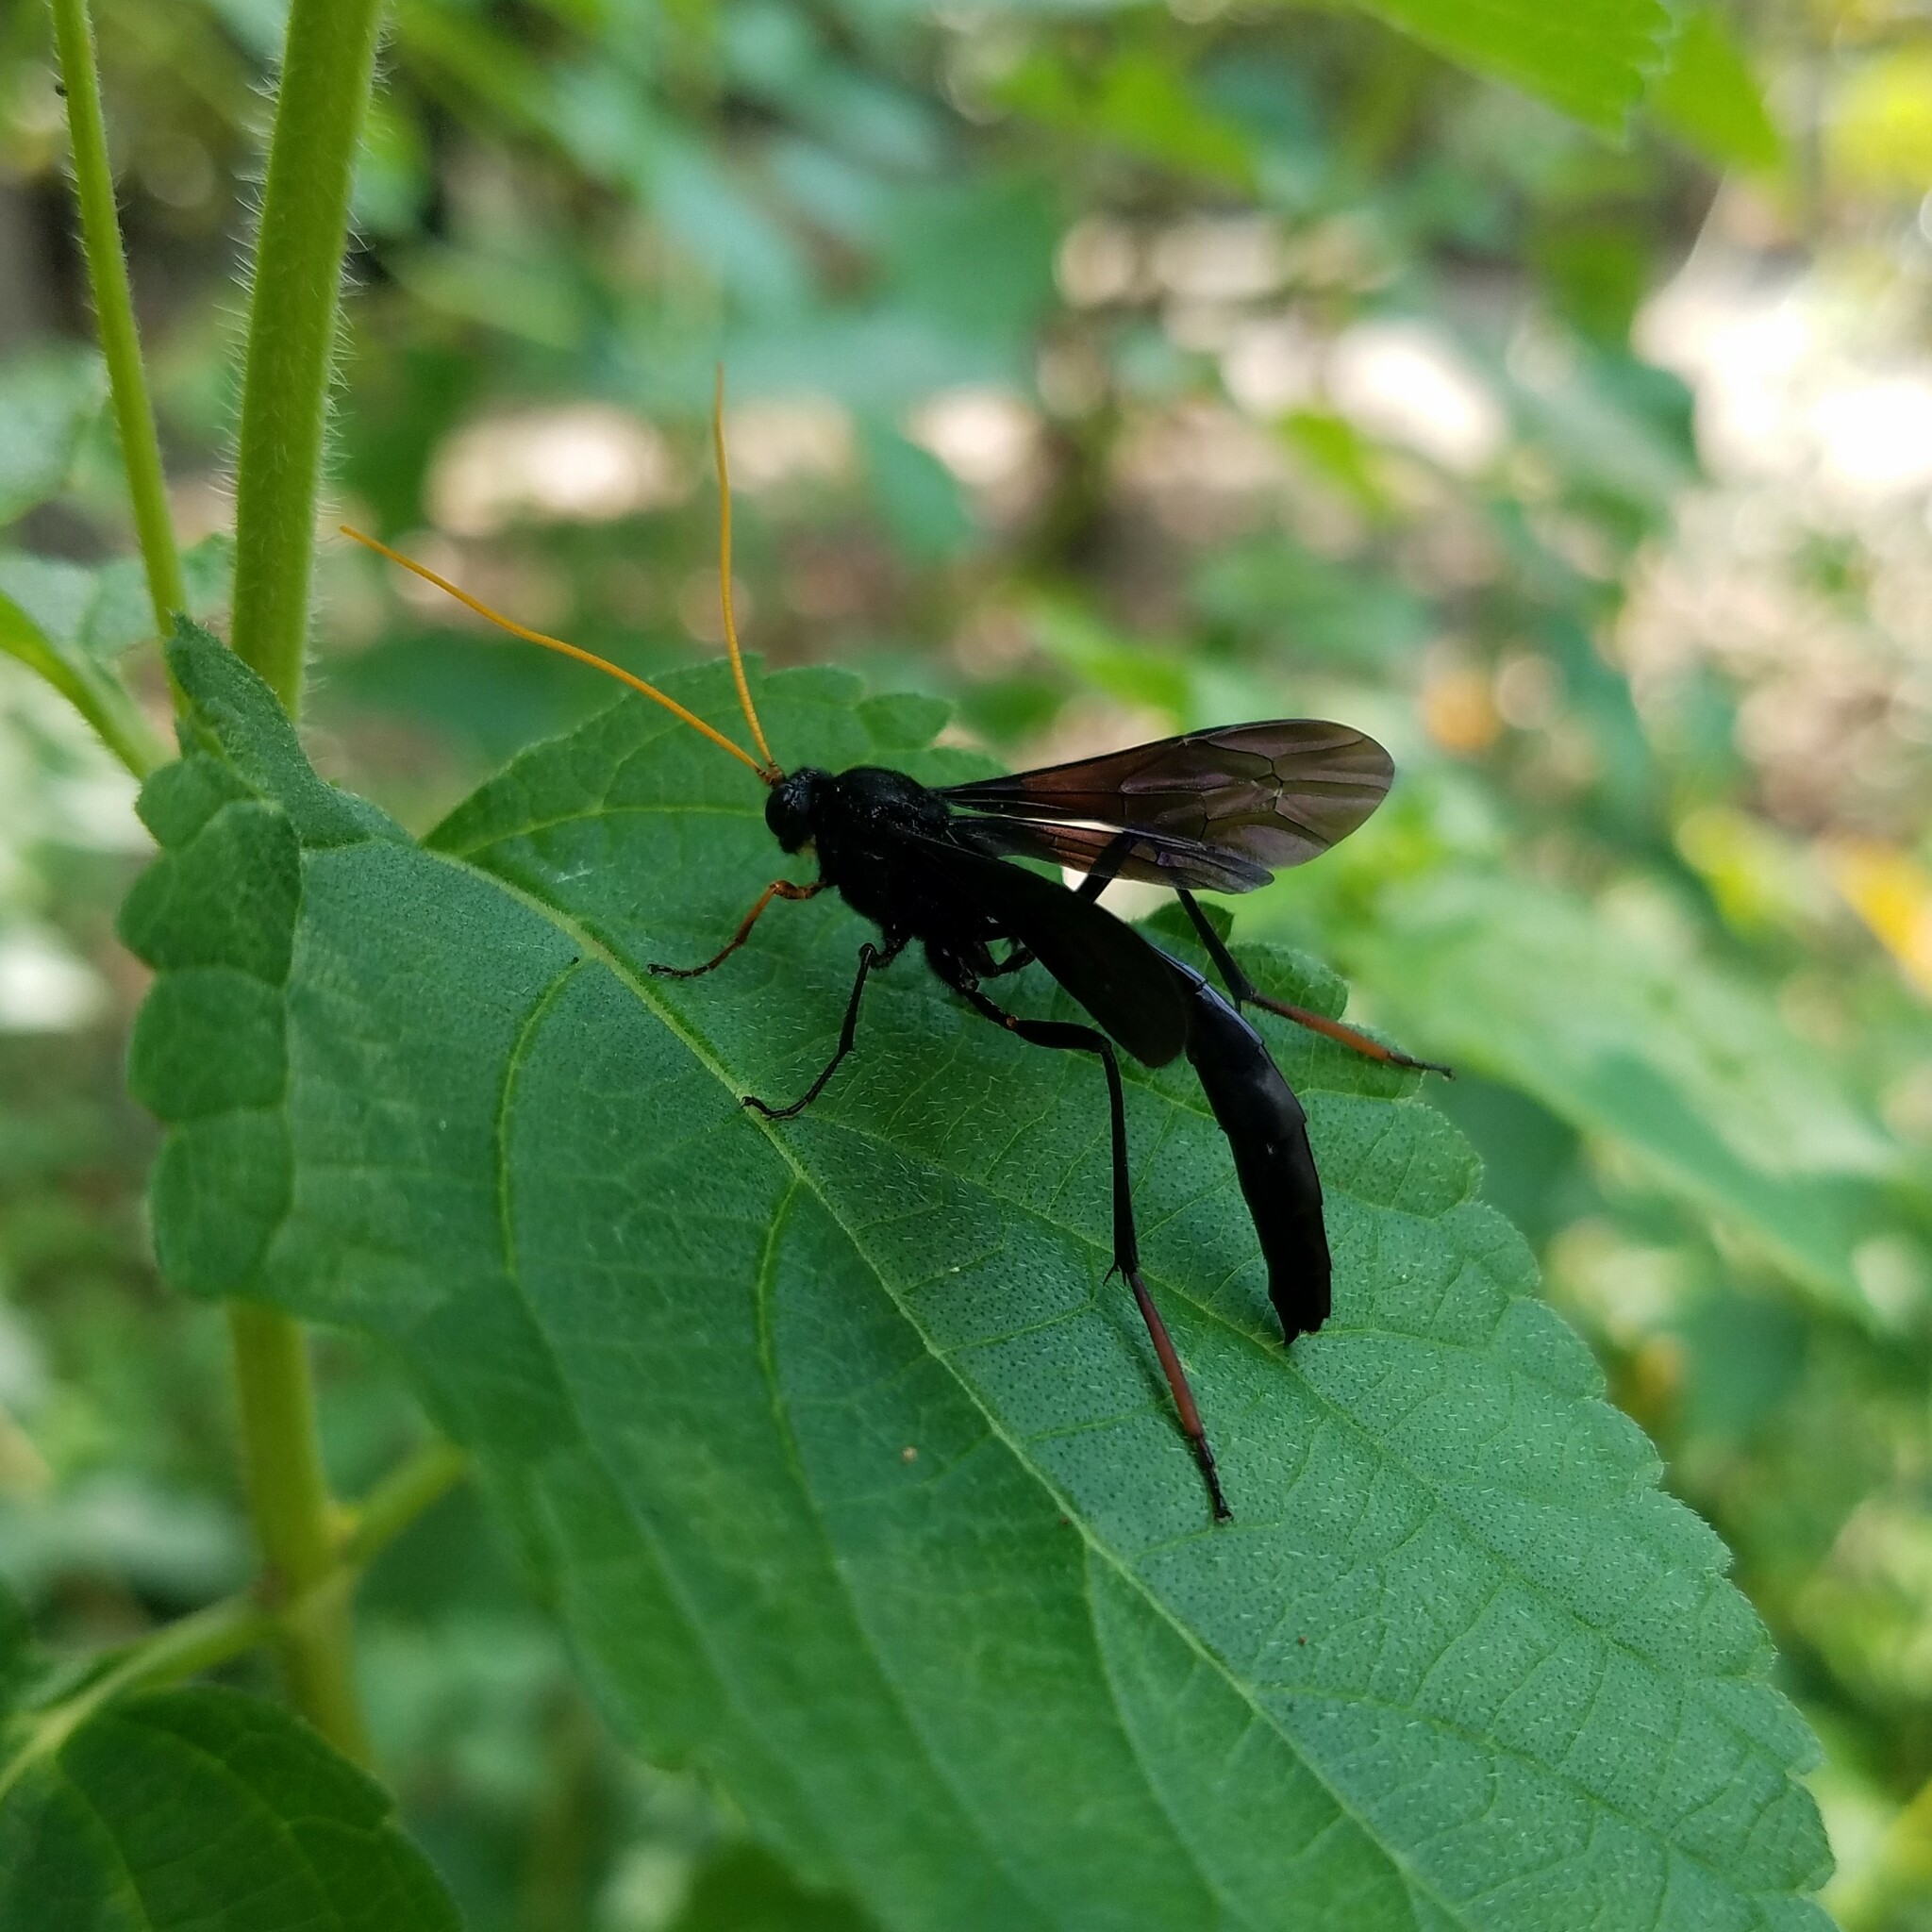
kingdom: Animalia
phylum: Arthropoda
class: Insecta
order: Hymenoptera
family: Ichneumonidae
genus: Heteropelma
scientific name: Heteropelma datanae
